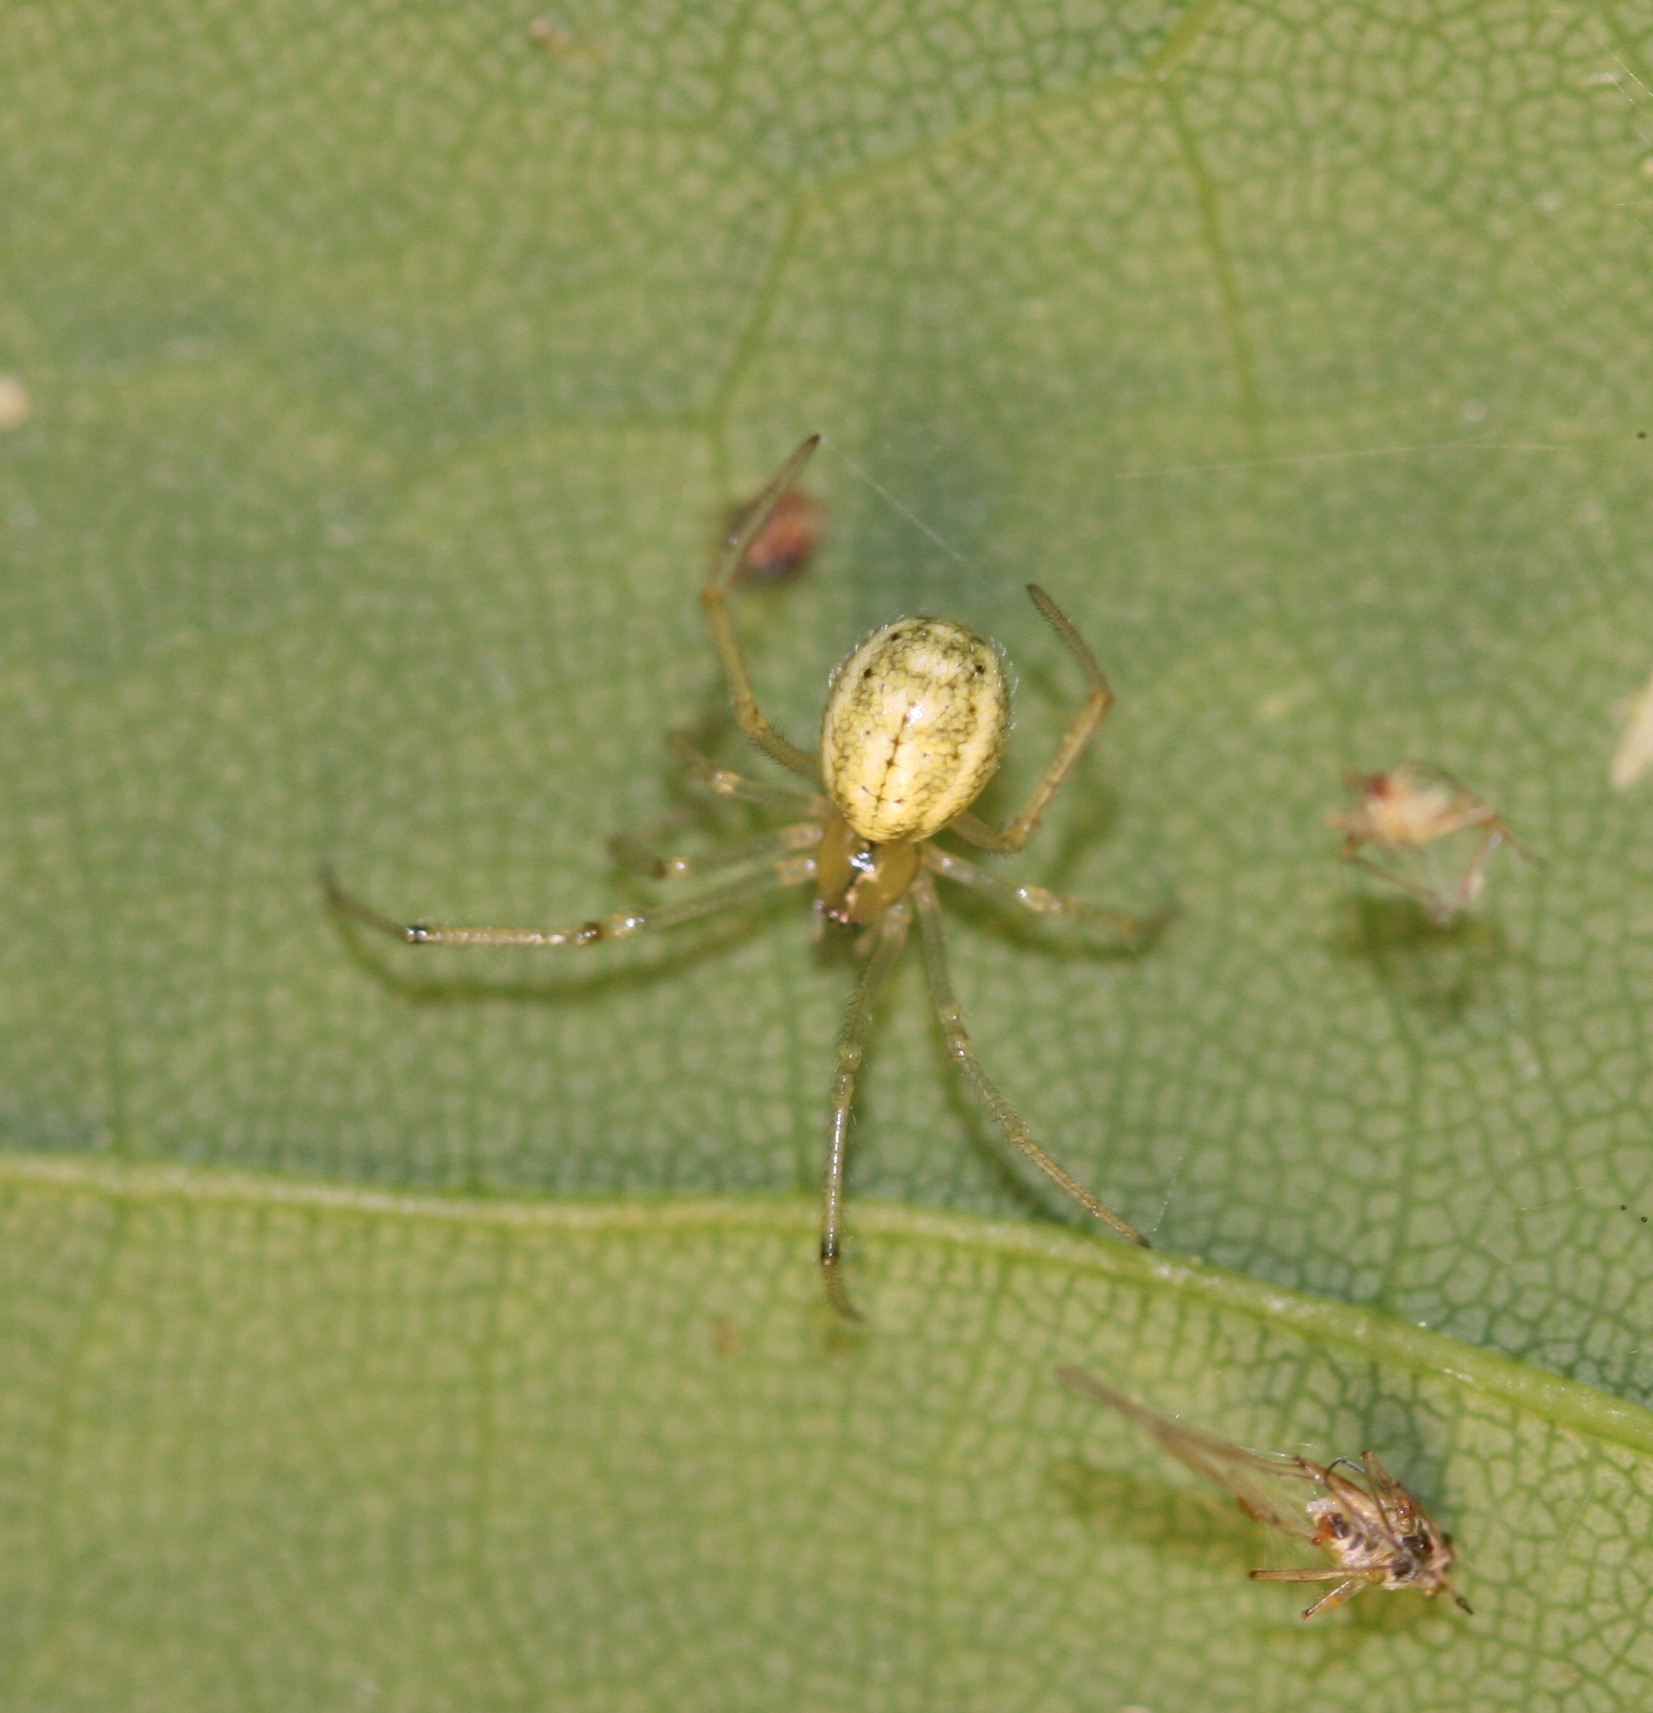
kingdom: Animalia
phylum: Arthropoda
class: Arachnida
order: Araneae
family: Theridiidae
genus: Enoplognatha
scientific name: Enoplognatha ovata
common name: Common candy-striped spider
